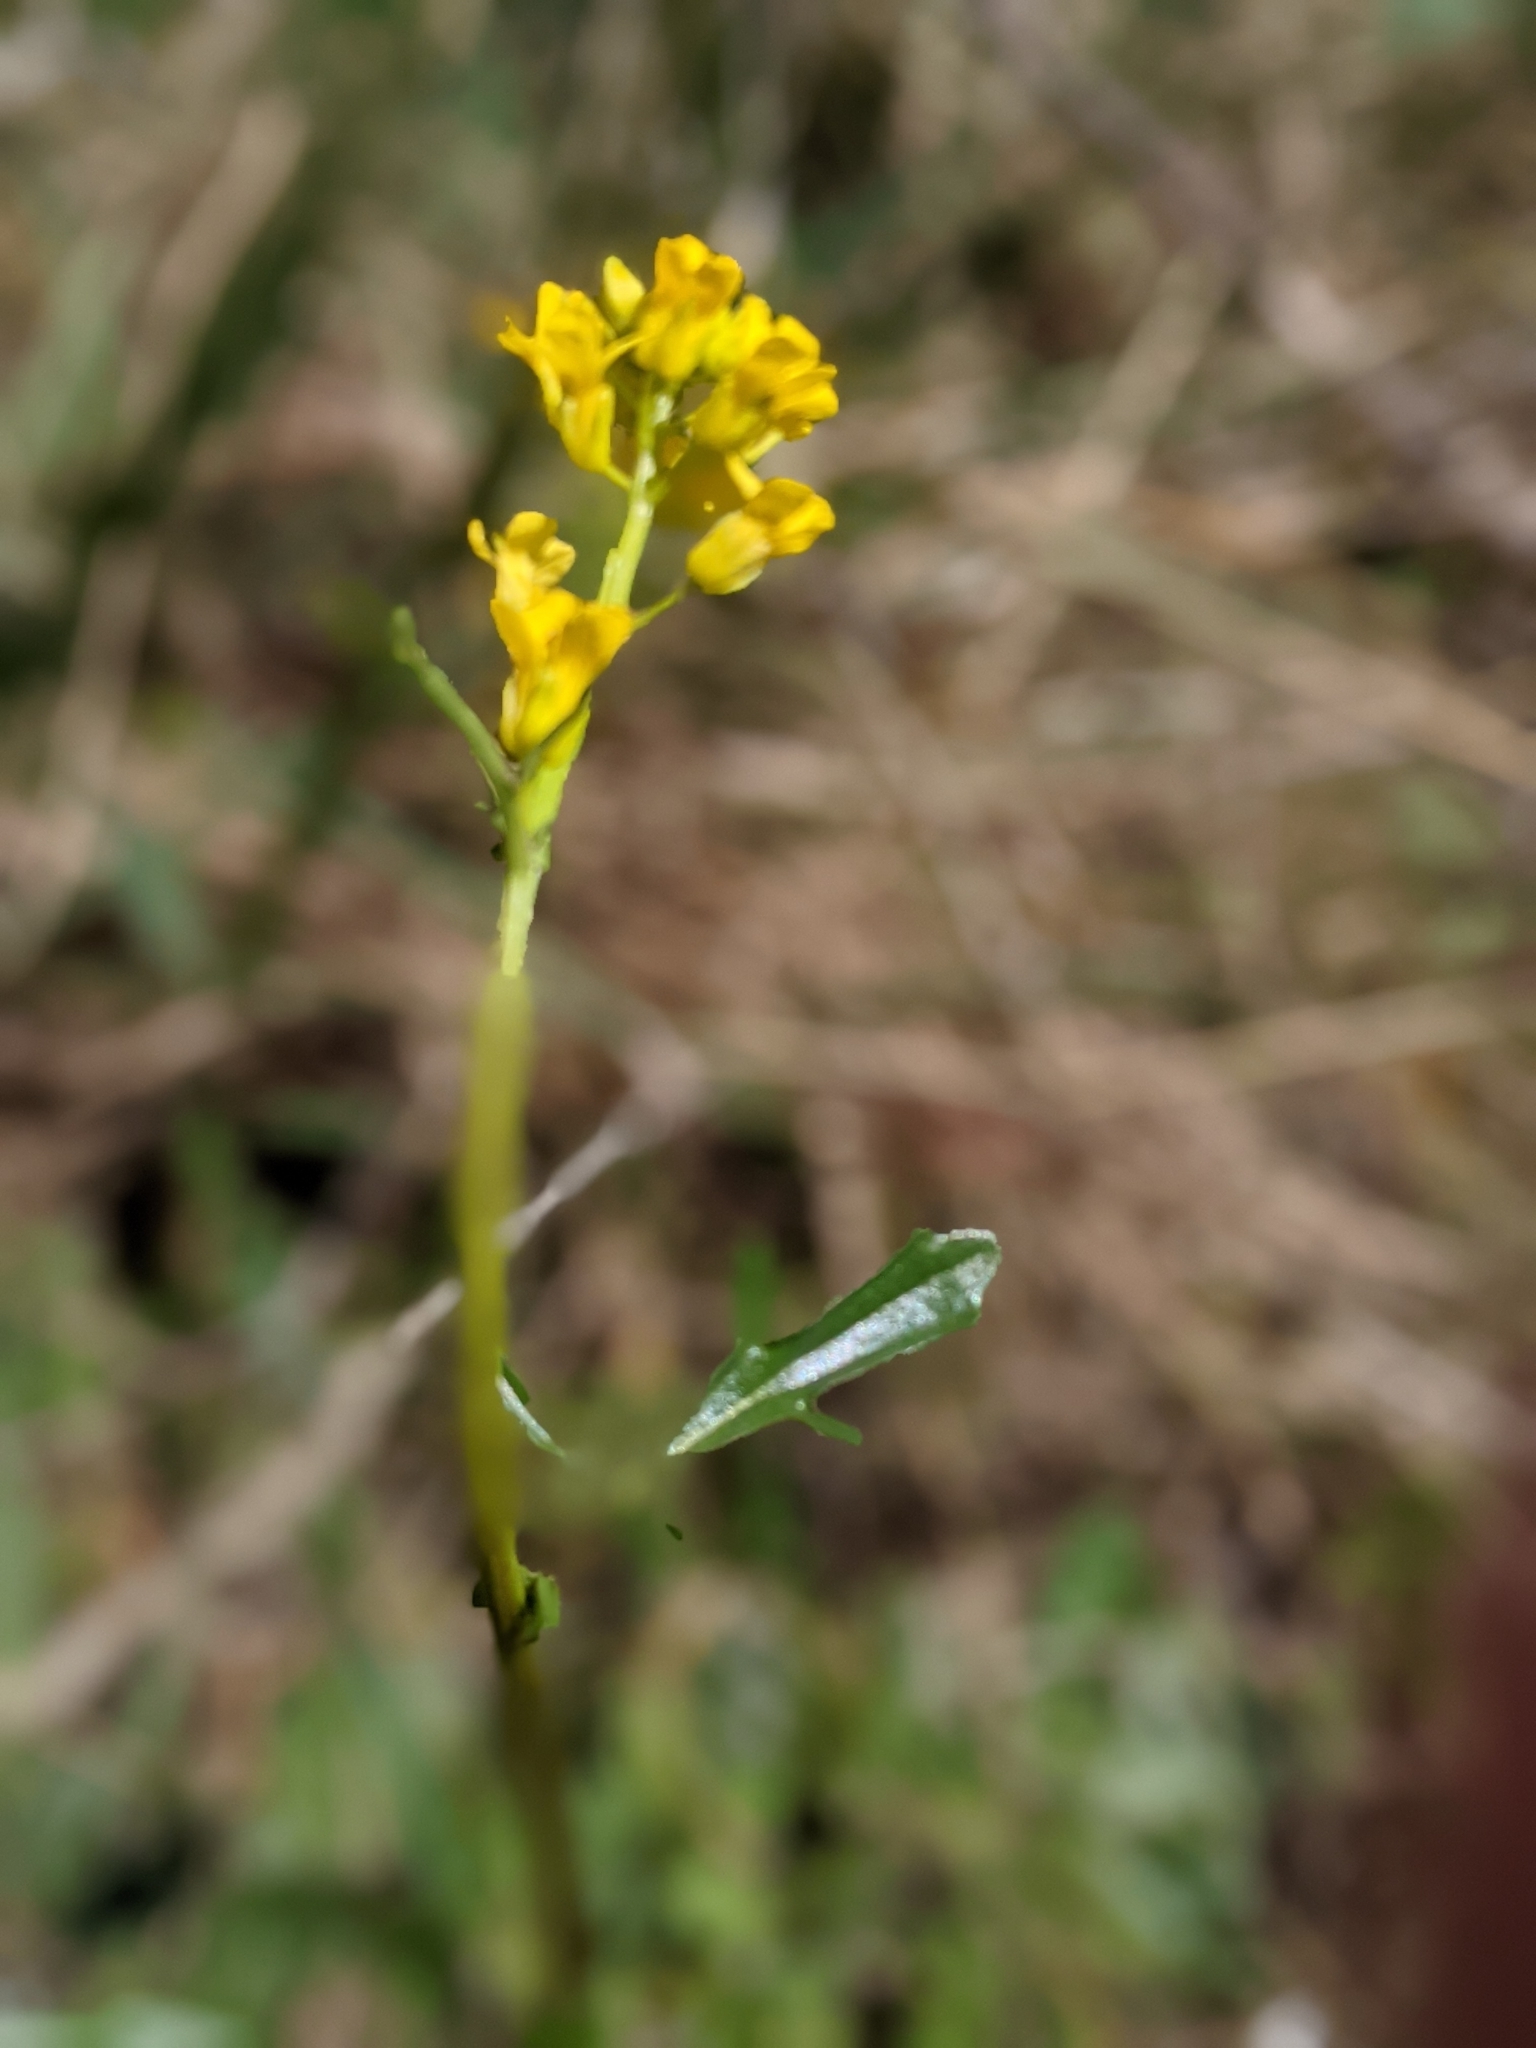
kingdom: Plantae
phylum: Tracheophyta
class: Magnoliopsida
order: Brassicales
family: Brassicaceae
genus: Barbarea
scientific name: Barbarea orthoceras
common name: American wintercress
